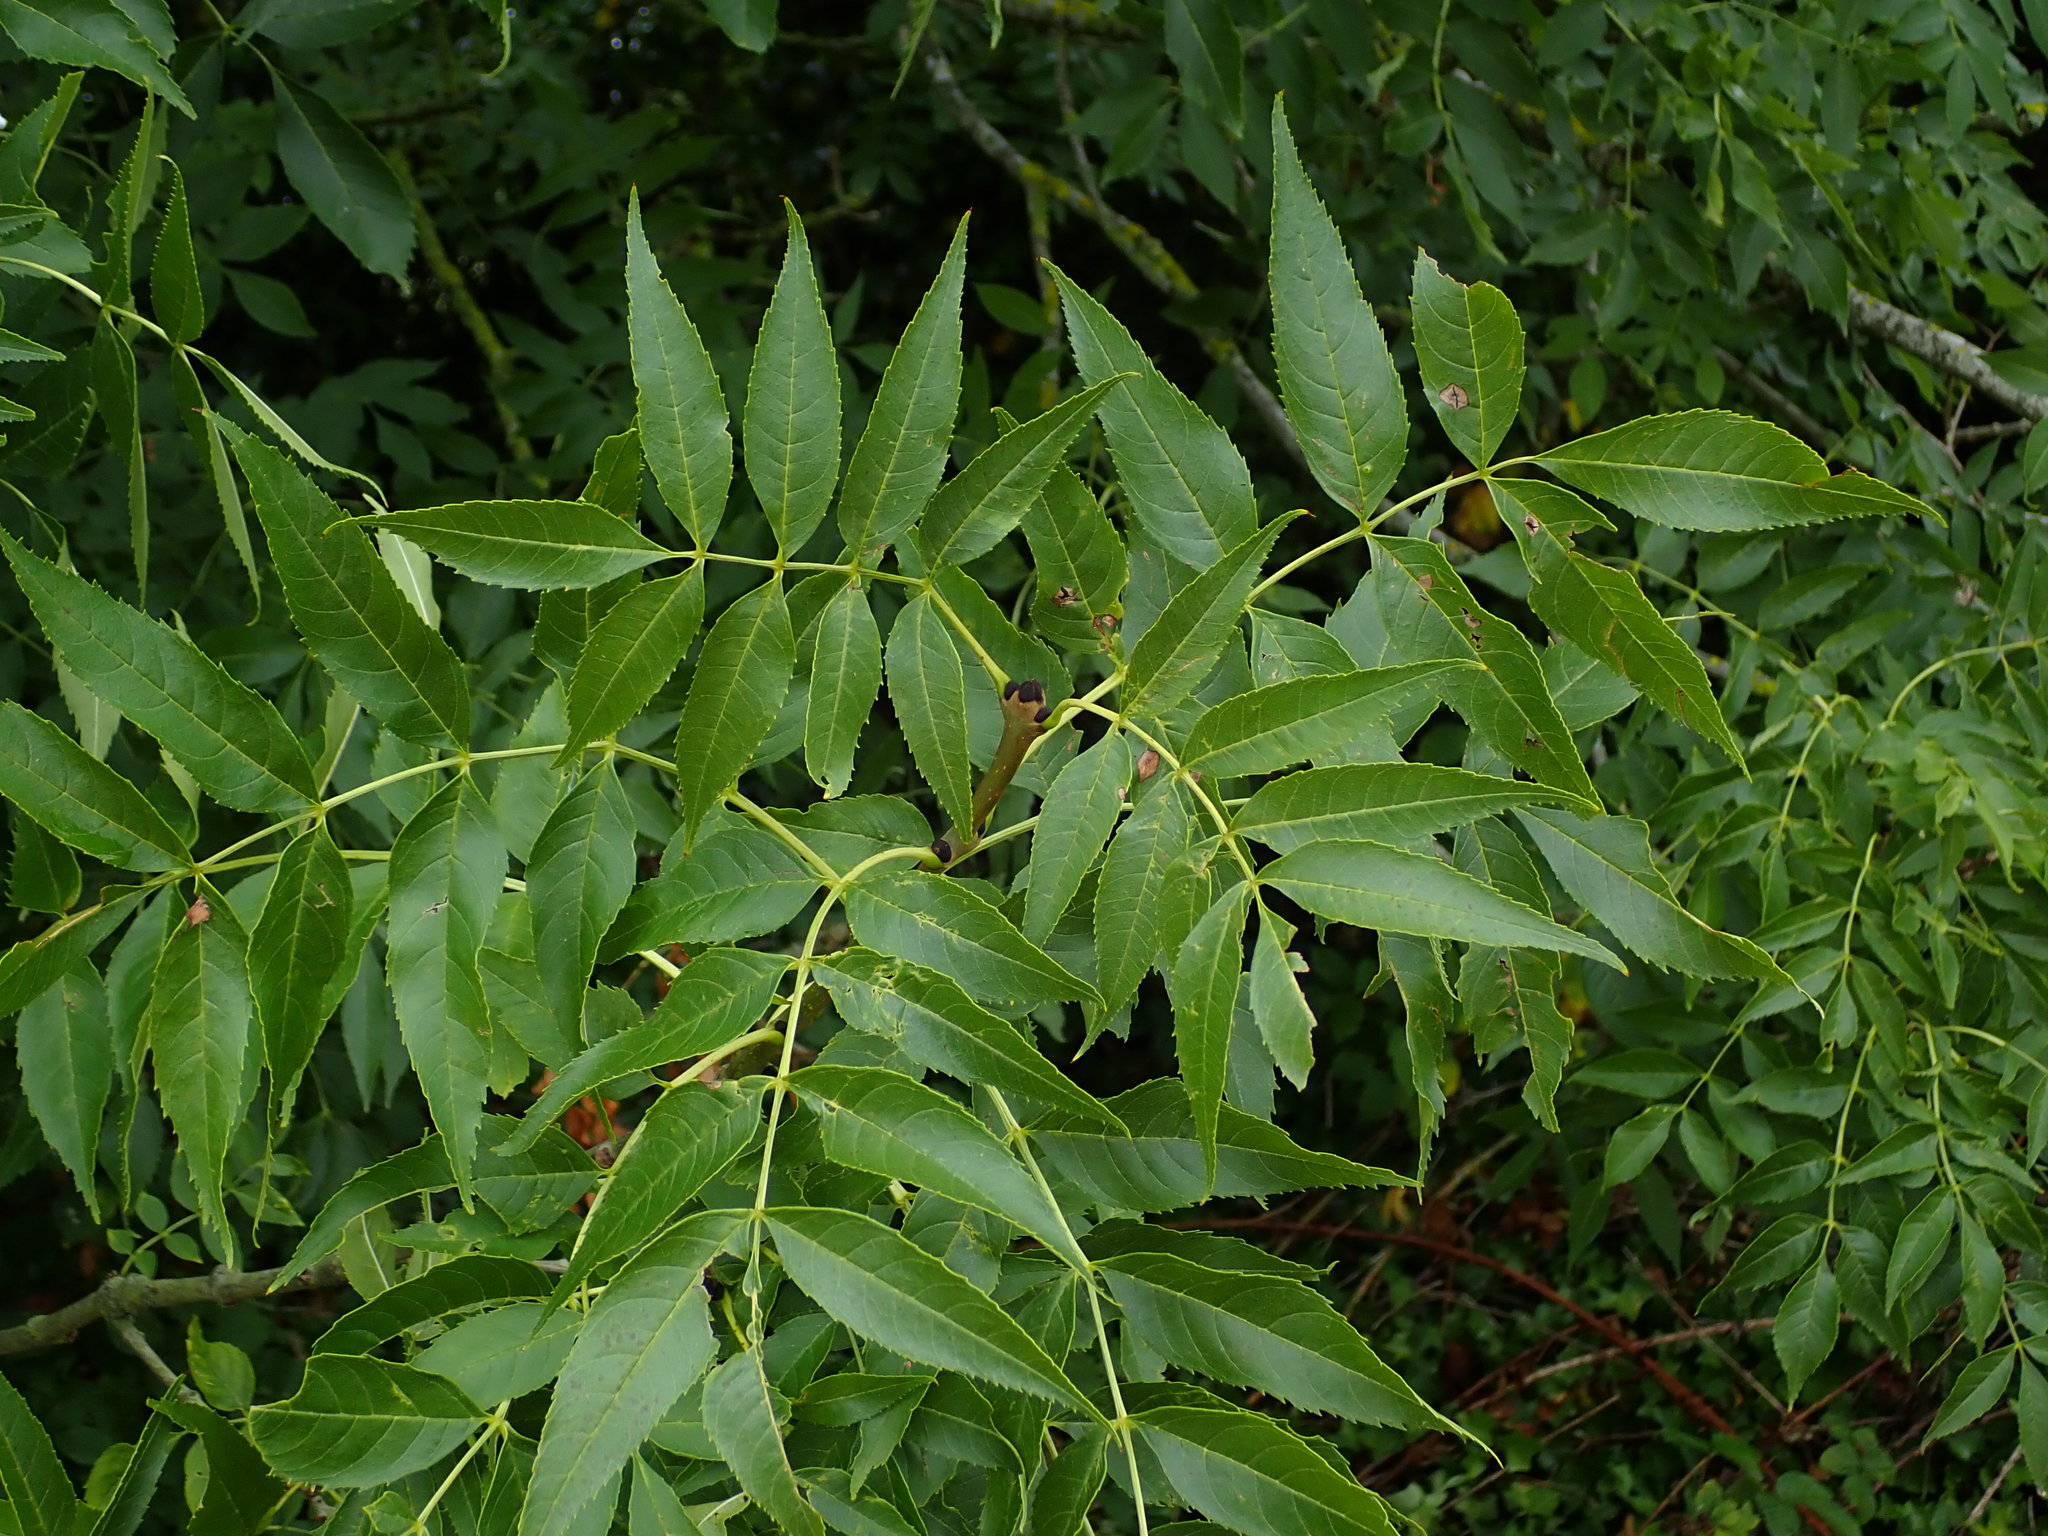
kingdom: Plantae
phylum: Tracheophyta
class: Magnoliopsida
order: Lamiales
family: Oleaceae
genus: Fraxinus
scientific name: Fraxinus excelsior
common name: European ash
